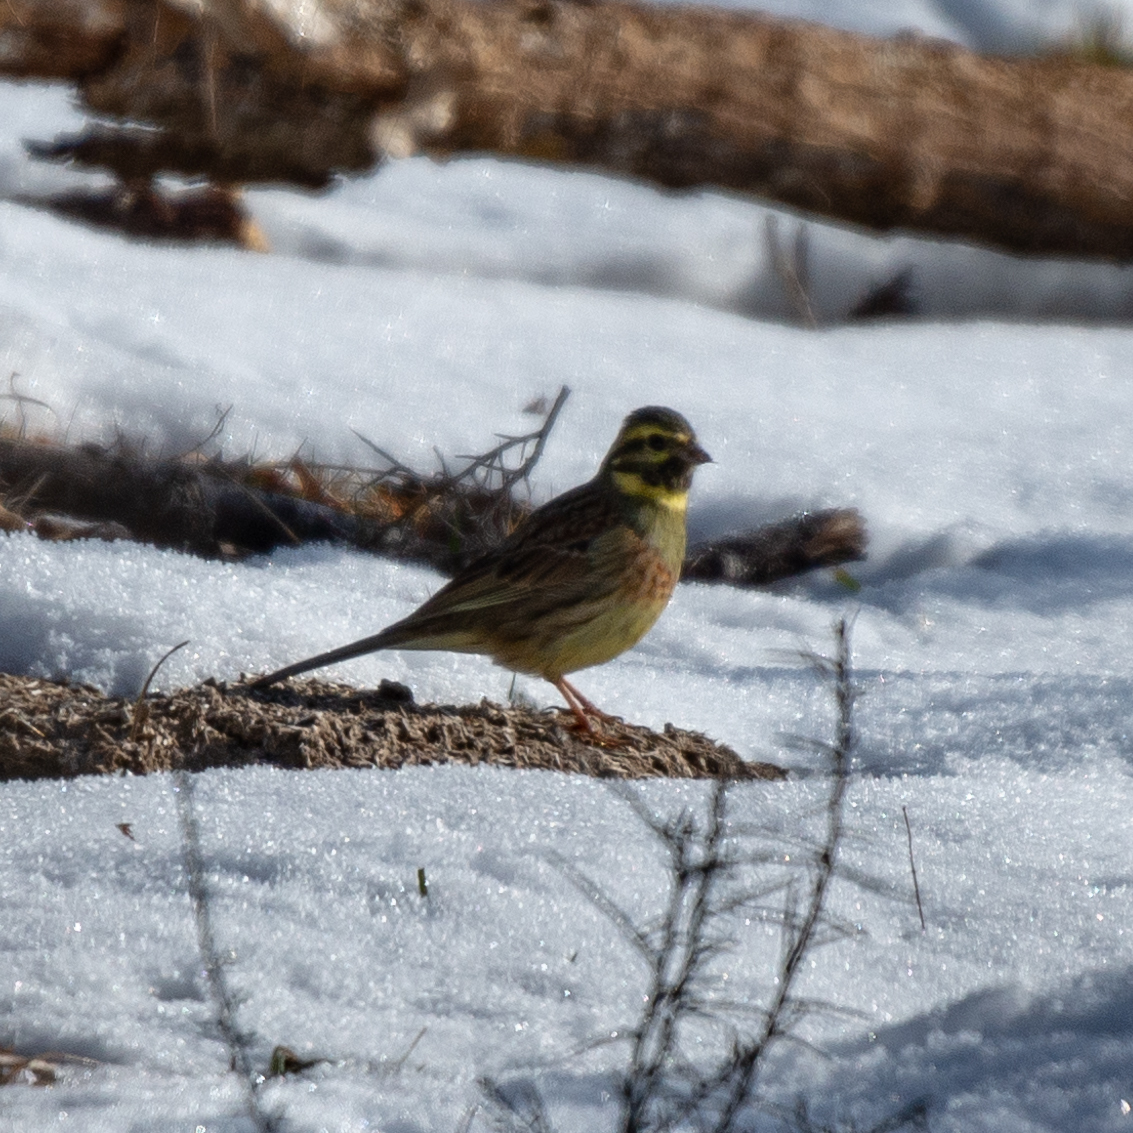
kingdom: Animalia
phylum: Chordata
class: Aves
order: Passeriformes
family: Emberizidae
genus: Emberiza
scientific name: Emberiza cirlus
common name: Cirl bunting
